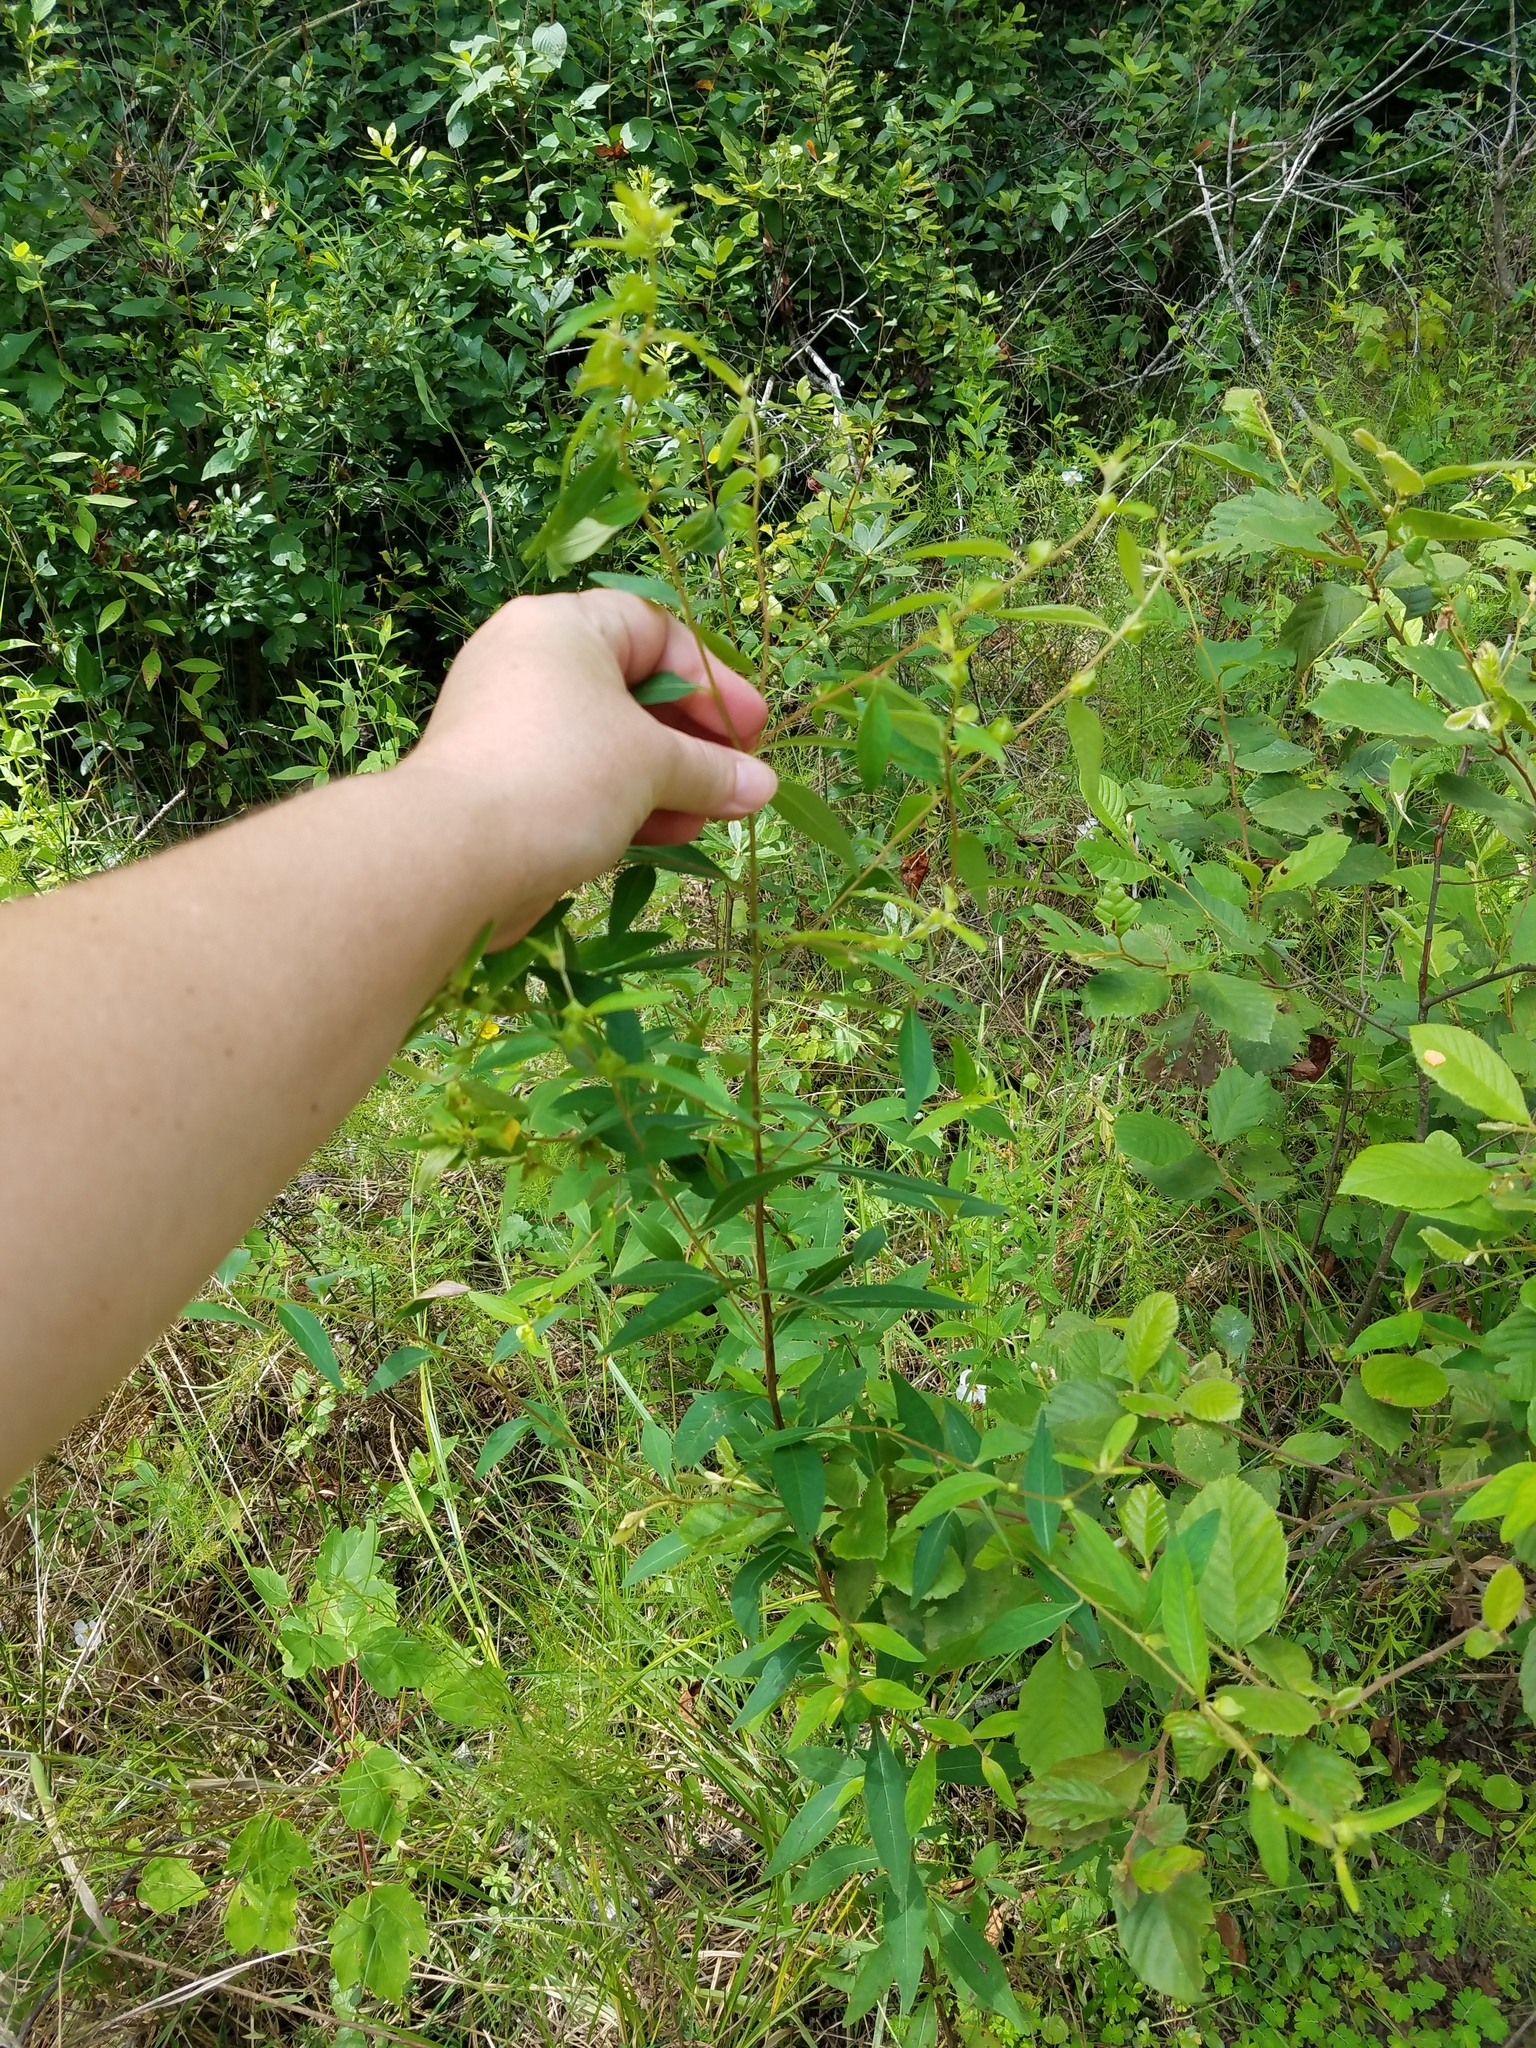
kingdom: Plantae
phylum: Tracheophyta
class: Magnoliopsida
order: Myrtales
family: Onagraceae
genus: Ludwigia
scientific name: Ludwigia alternifolia
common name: Rattlebox
